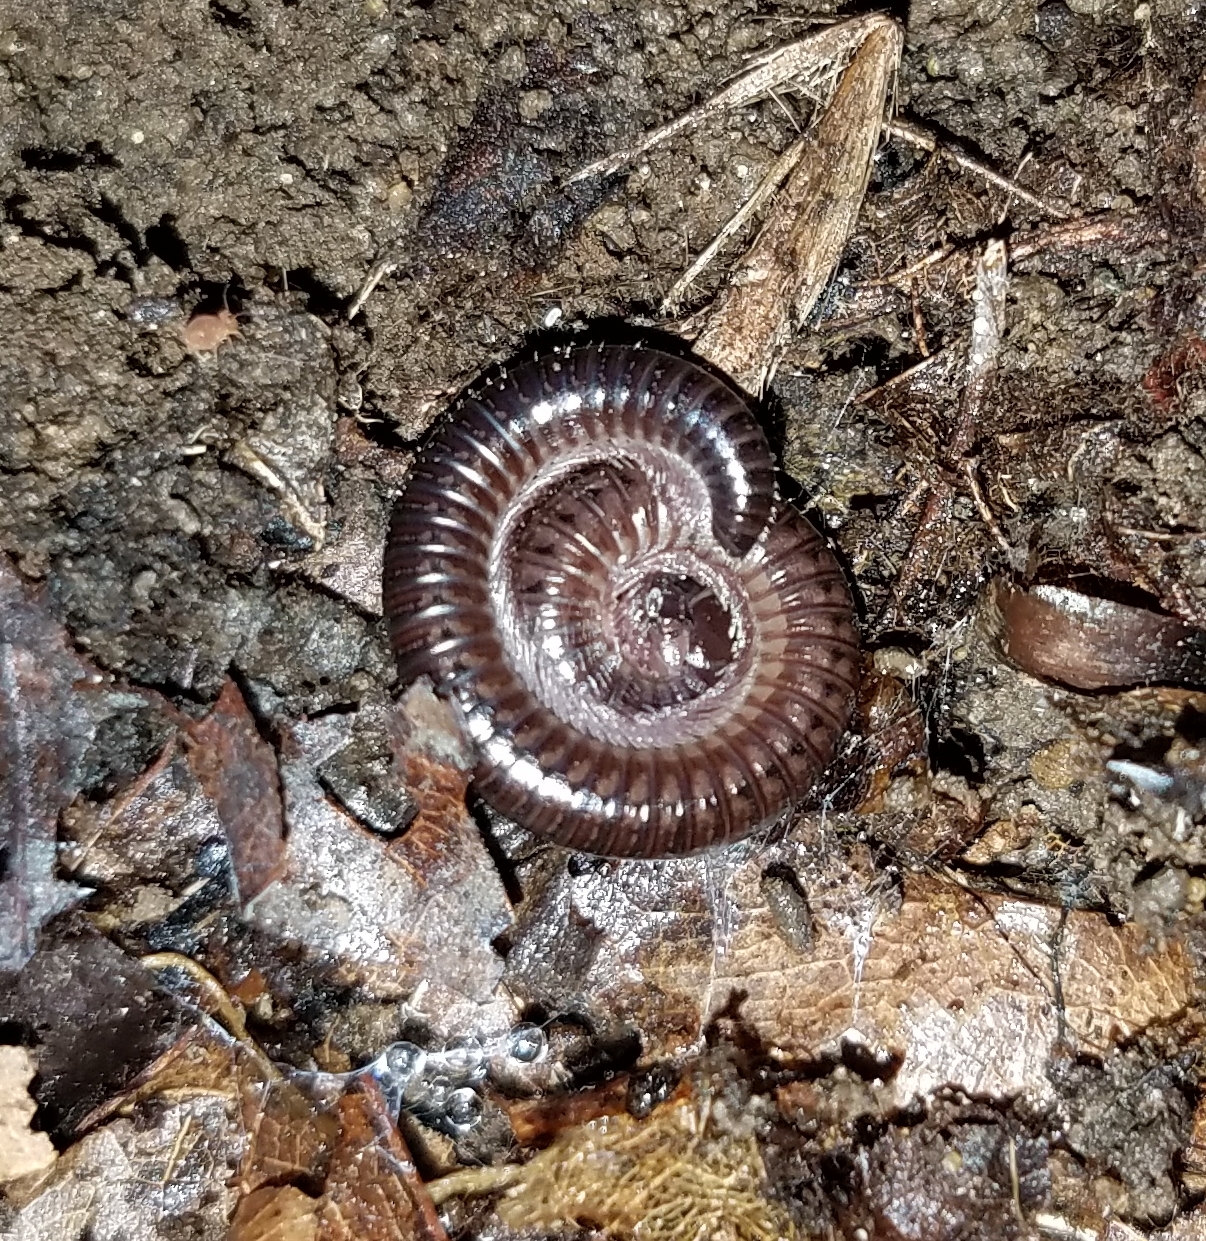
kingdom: Animalia
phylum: Arthropoda
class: Diplopoda
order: Julida
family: Parajulidae
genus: Ptyoiulus
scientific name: Ptyoiulus impressus
